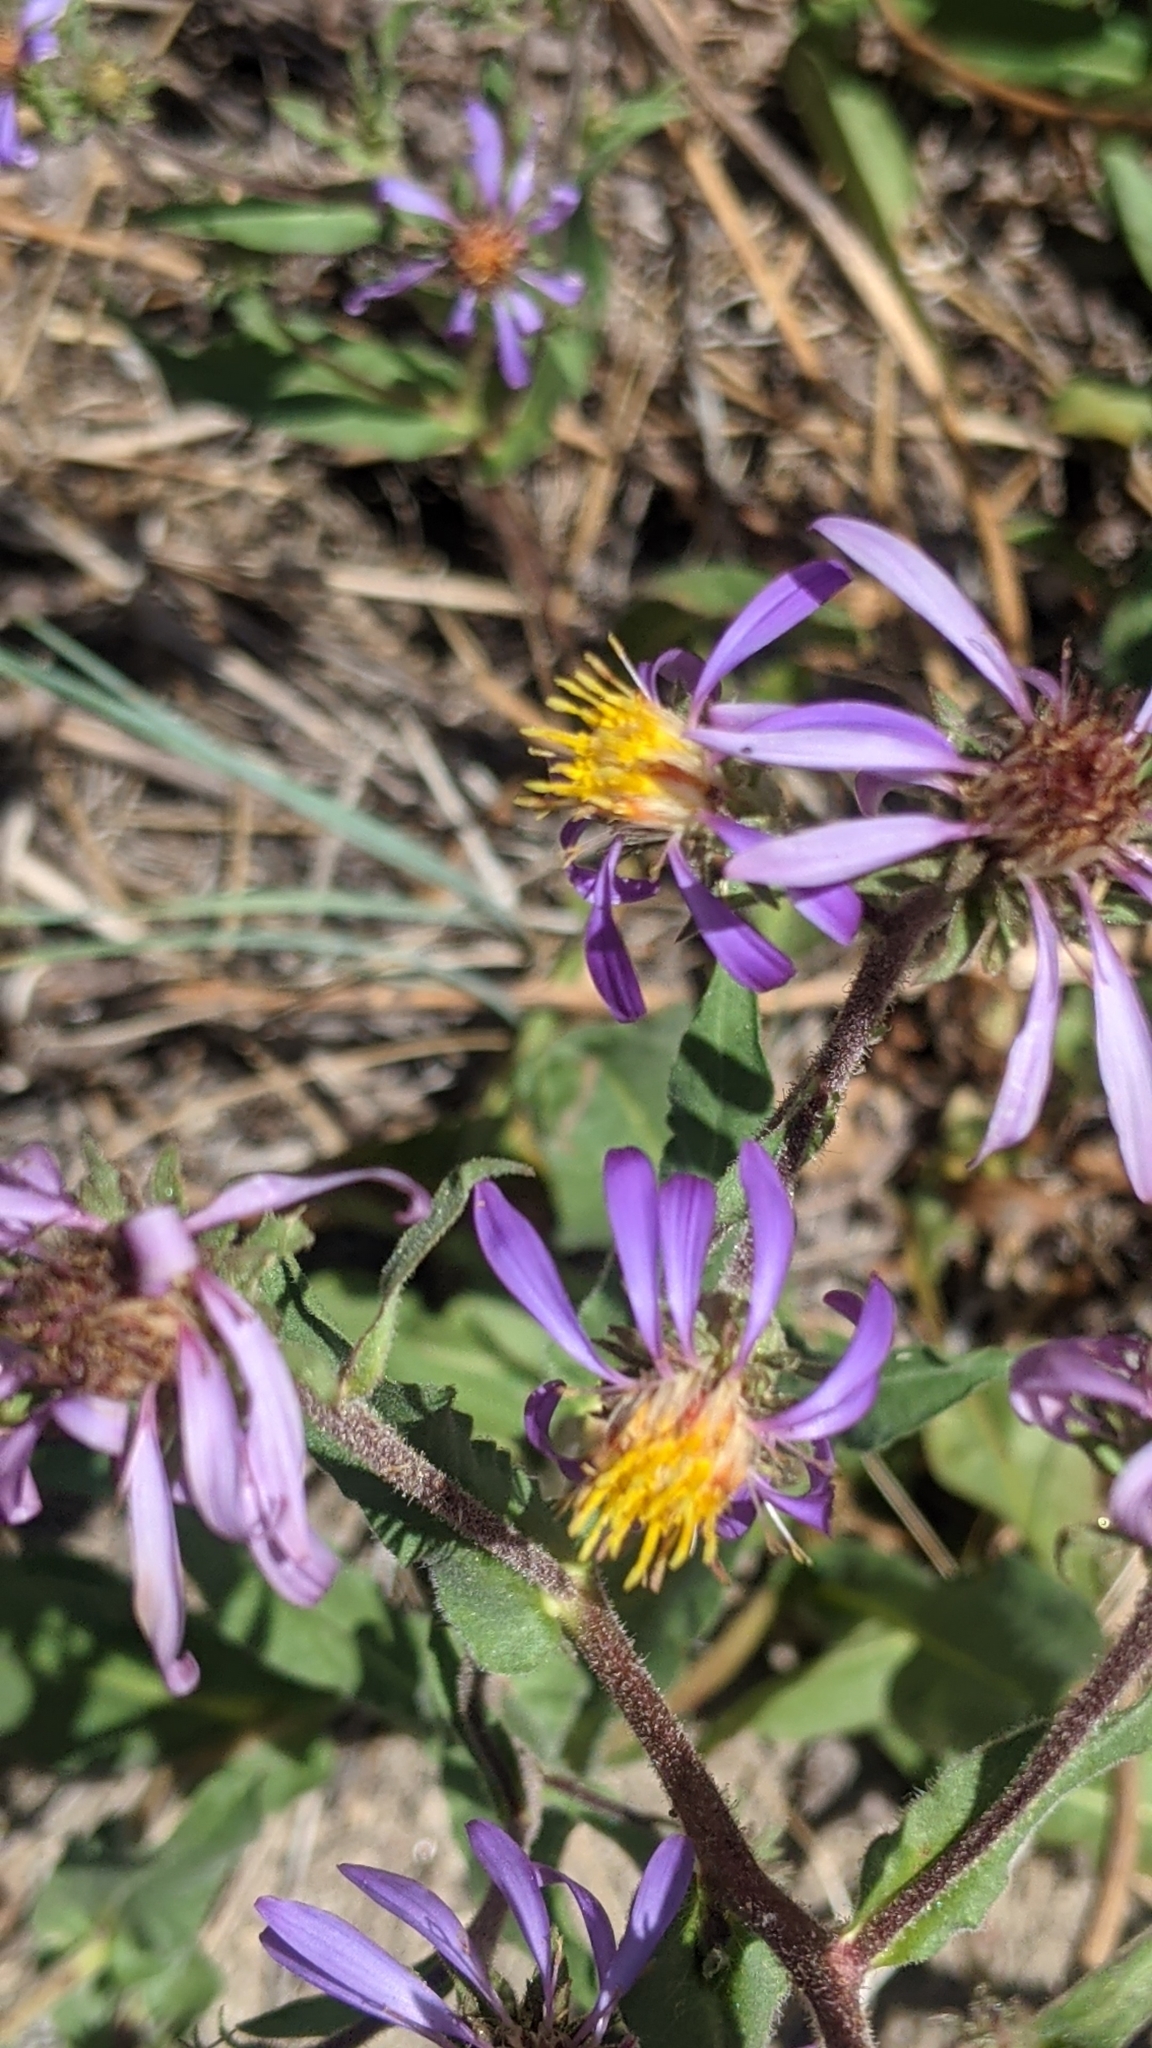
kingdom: Plantae
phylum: Tracheophyta
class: Magnoliopsida
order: Asterales
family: Asteraceae
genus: Eurybia
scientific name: Eurybia integrifolia
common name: Thick-stem aster
